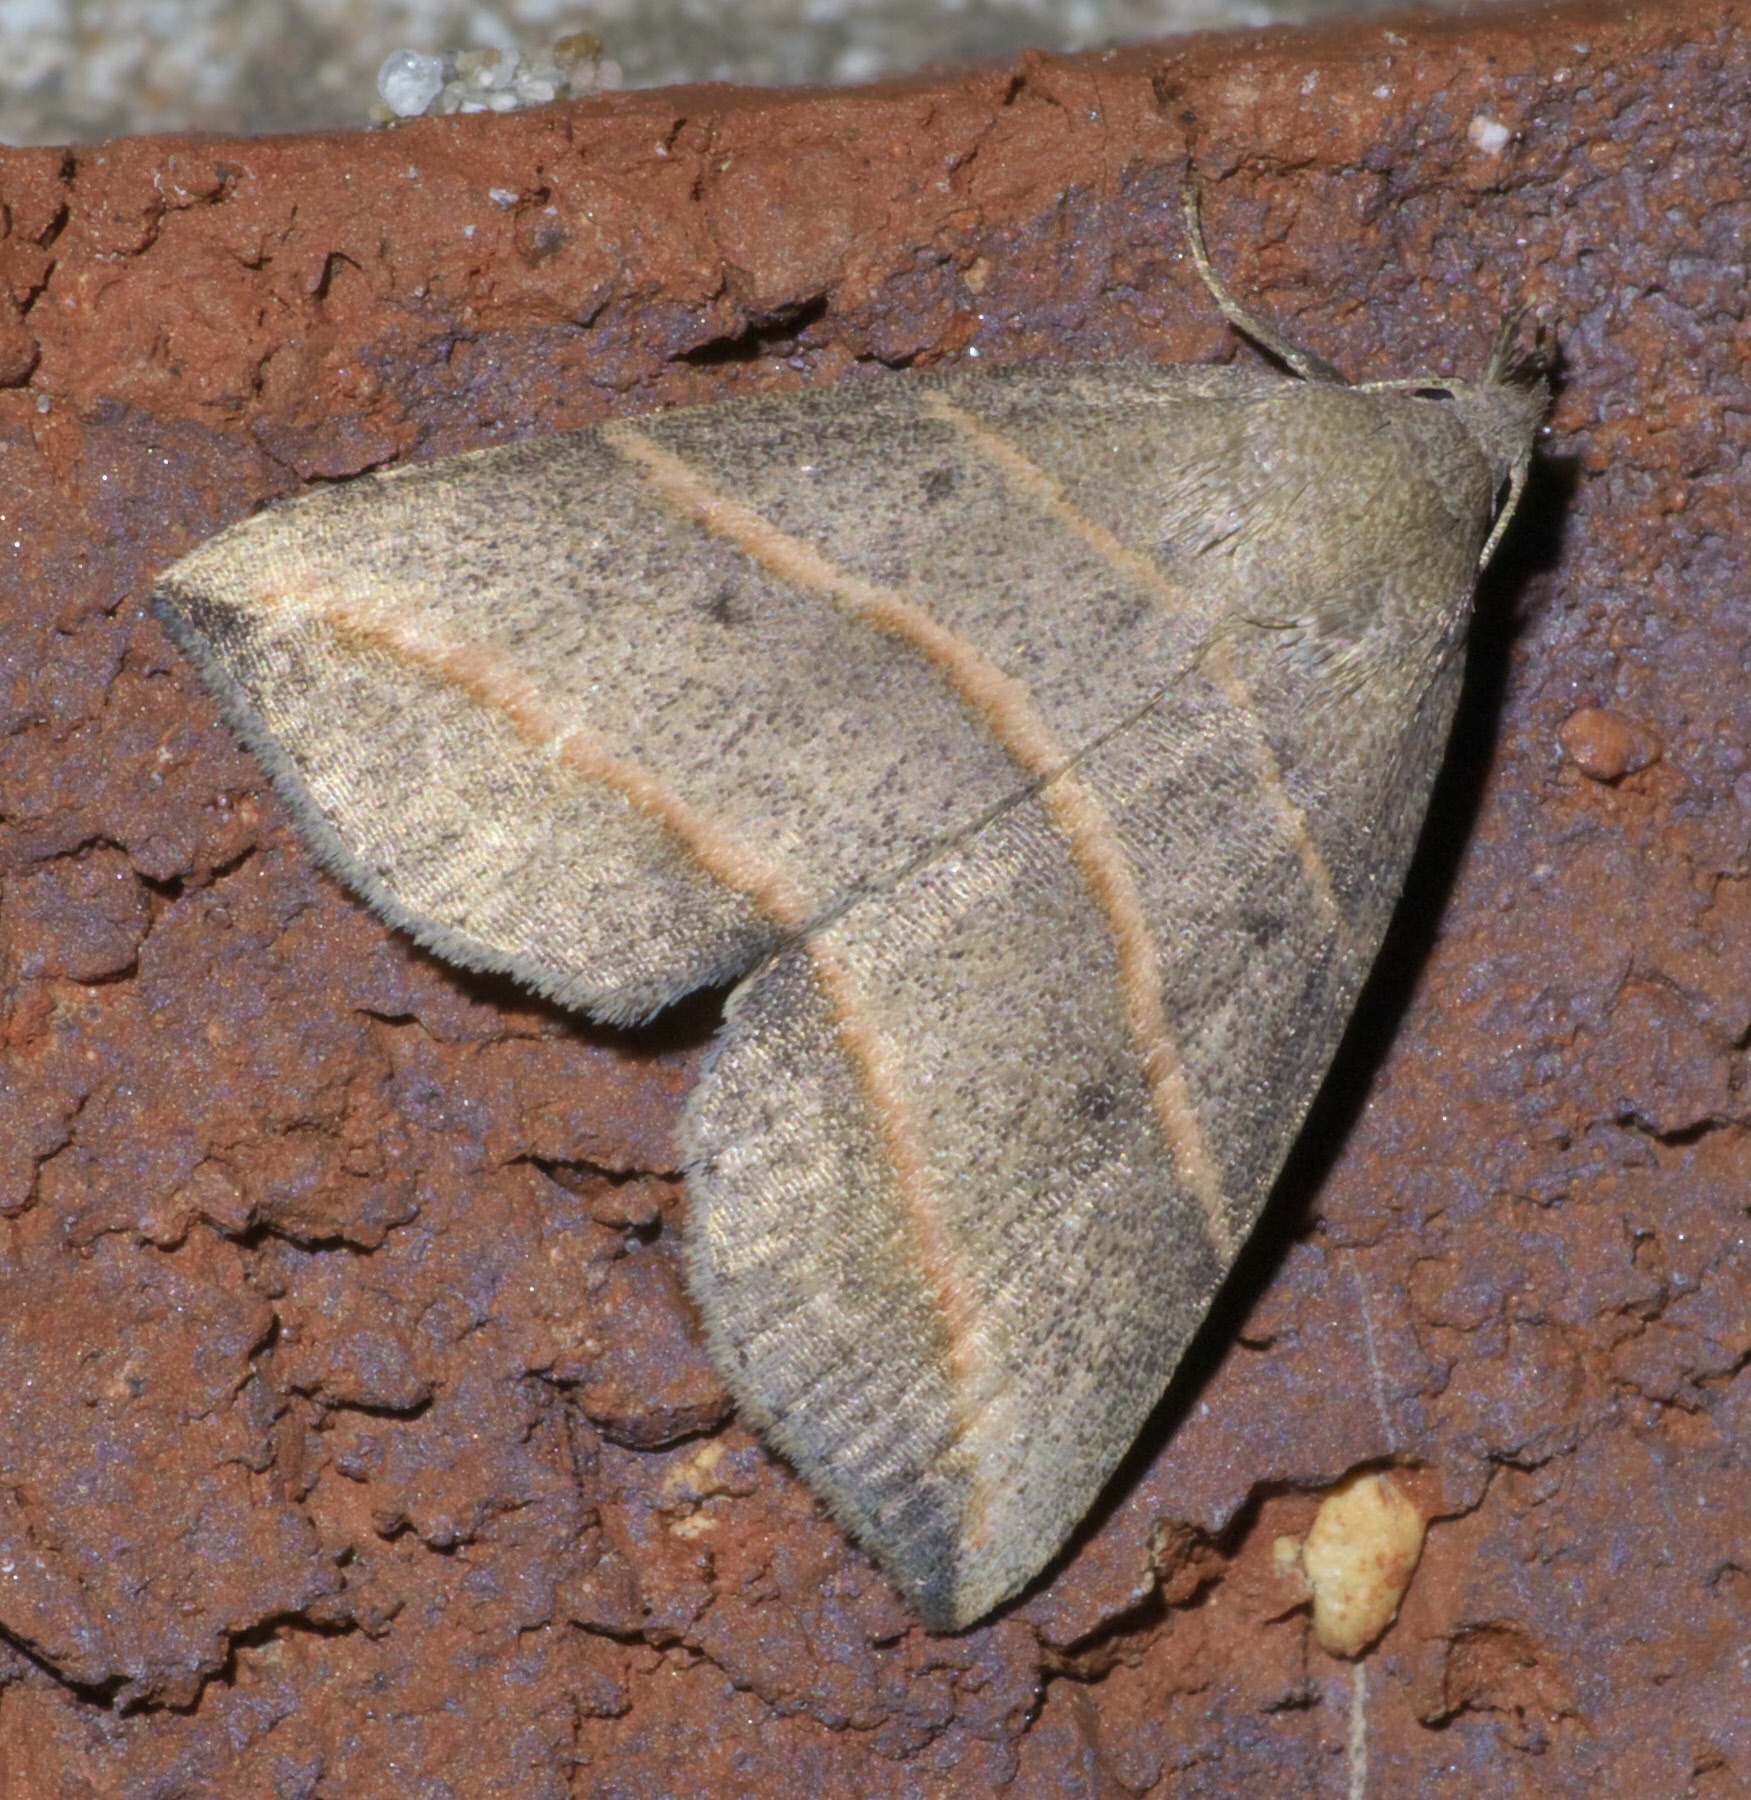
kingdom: Animalia
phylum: Arthropoda
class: Insecta
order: Lepidoptera
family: Erebidae
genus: Colobochyla
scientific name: Colobochyla interpuncta
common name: Yellow-lined owlet
